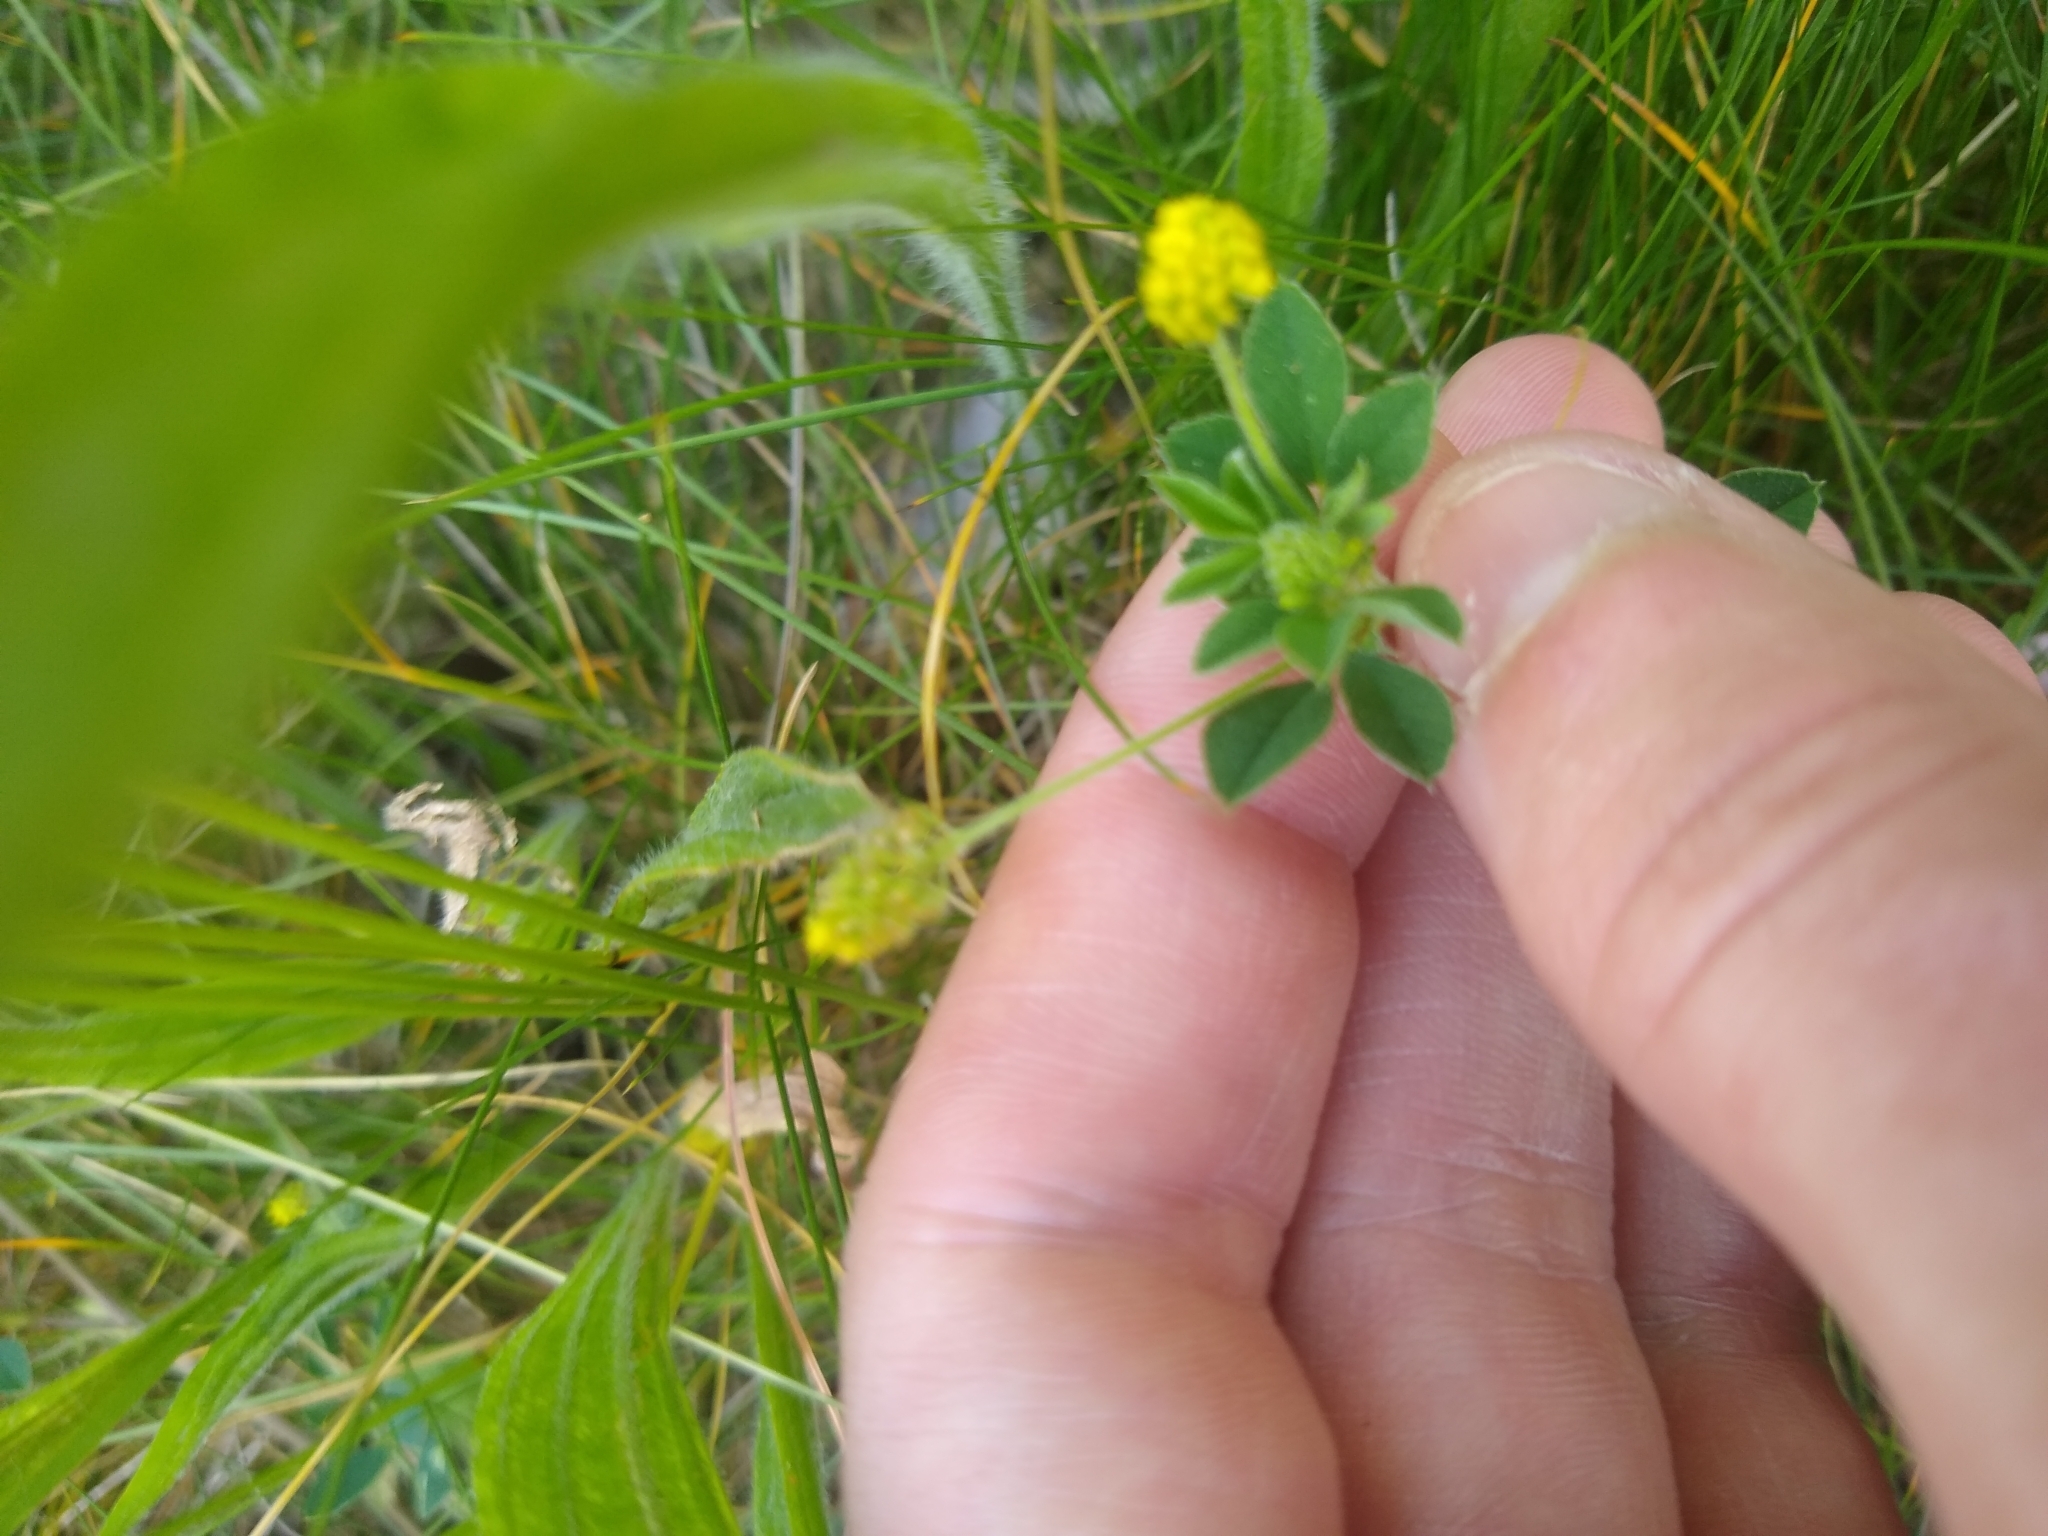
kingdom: Plantae
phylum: Tracheophyta
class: Magnoliopsida
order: Fabales
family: Fabaceae
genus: Medicago
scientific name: Medicago lupulina
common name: Black medick
